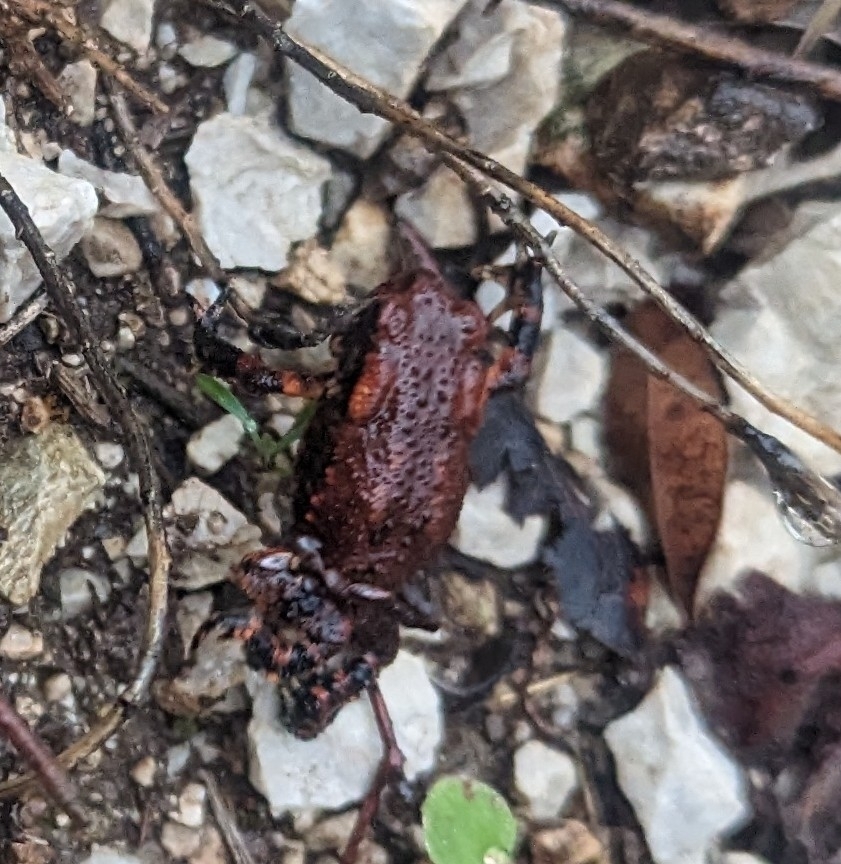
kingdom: Animalia
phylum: Chordata
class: Amphibia
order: Anura
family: Bufonidae
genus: Bufo
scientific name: Bufo spinosus
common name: Western common toad
